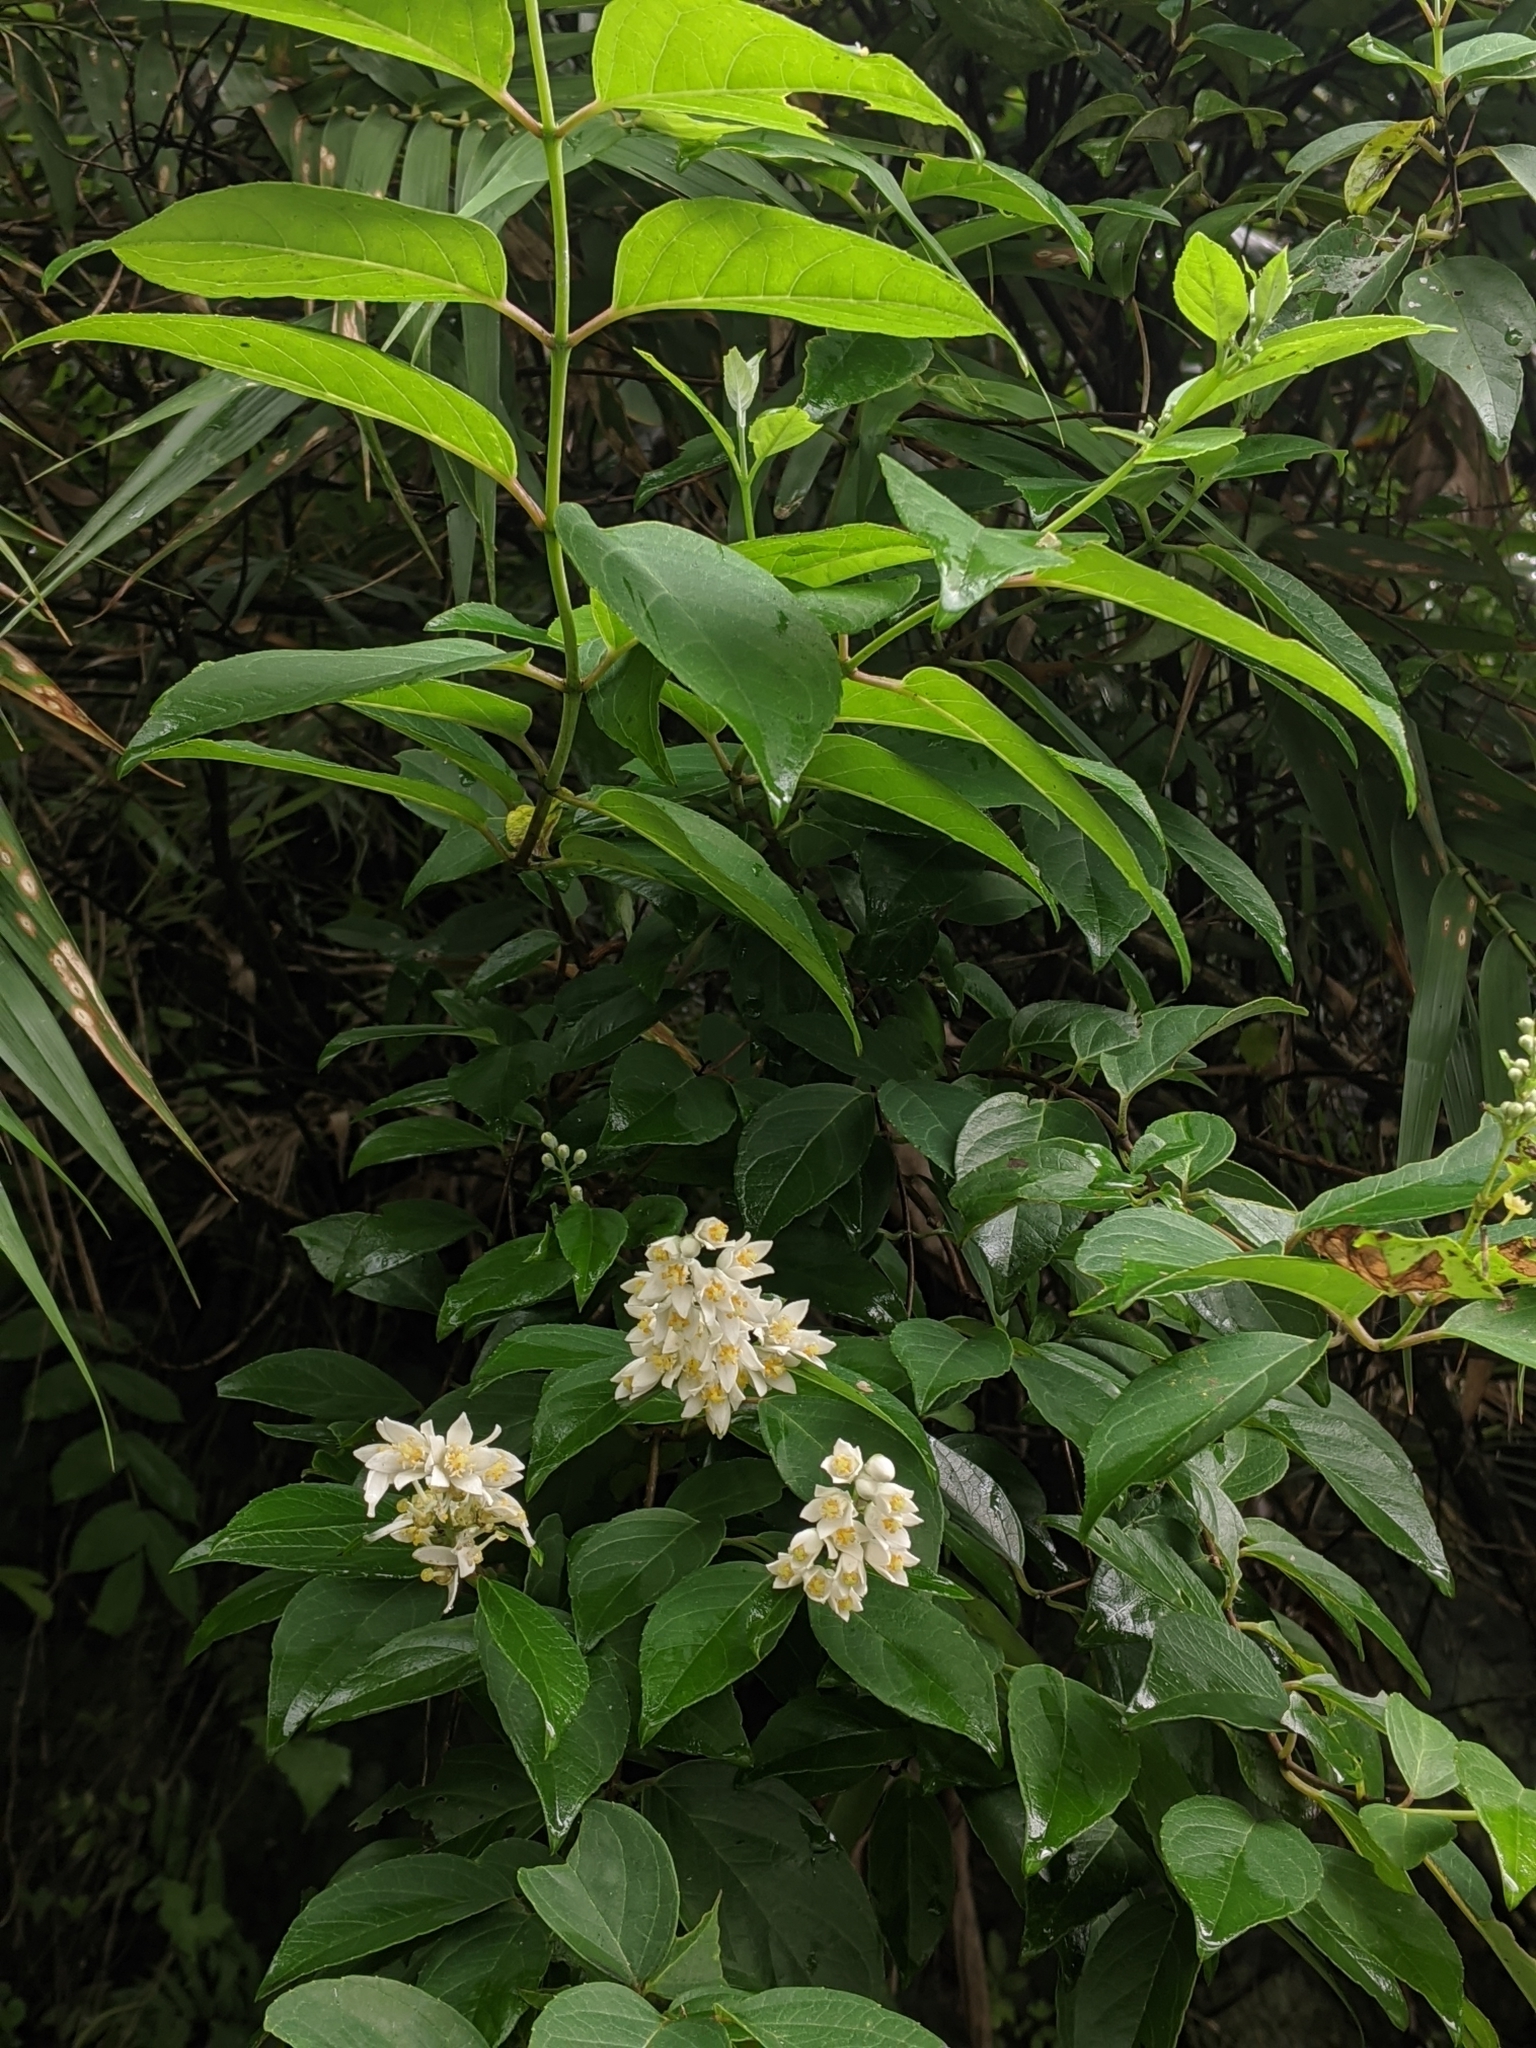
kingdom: Plantae
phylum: Tracheophyta
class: Magnoliopsida
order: Cornales
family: Hydrangeaceae
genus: Deutzia
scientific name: Deutzia pulchra
